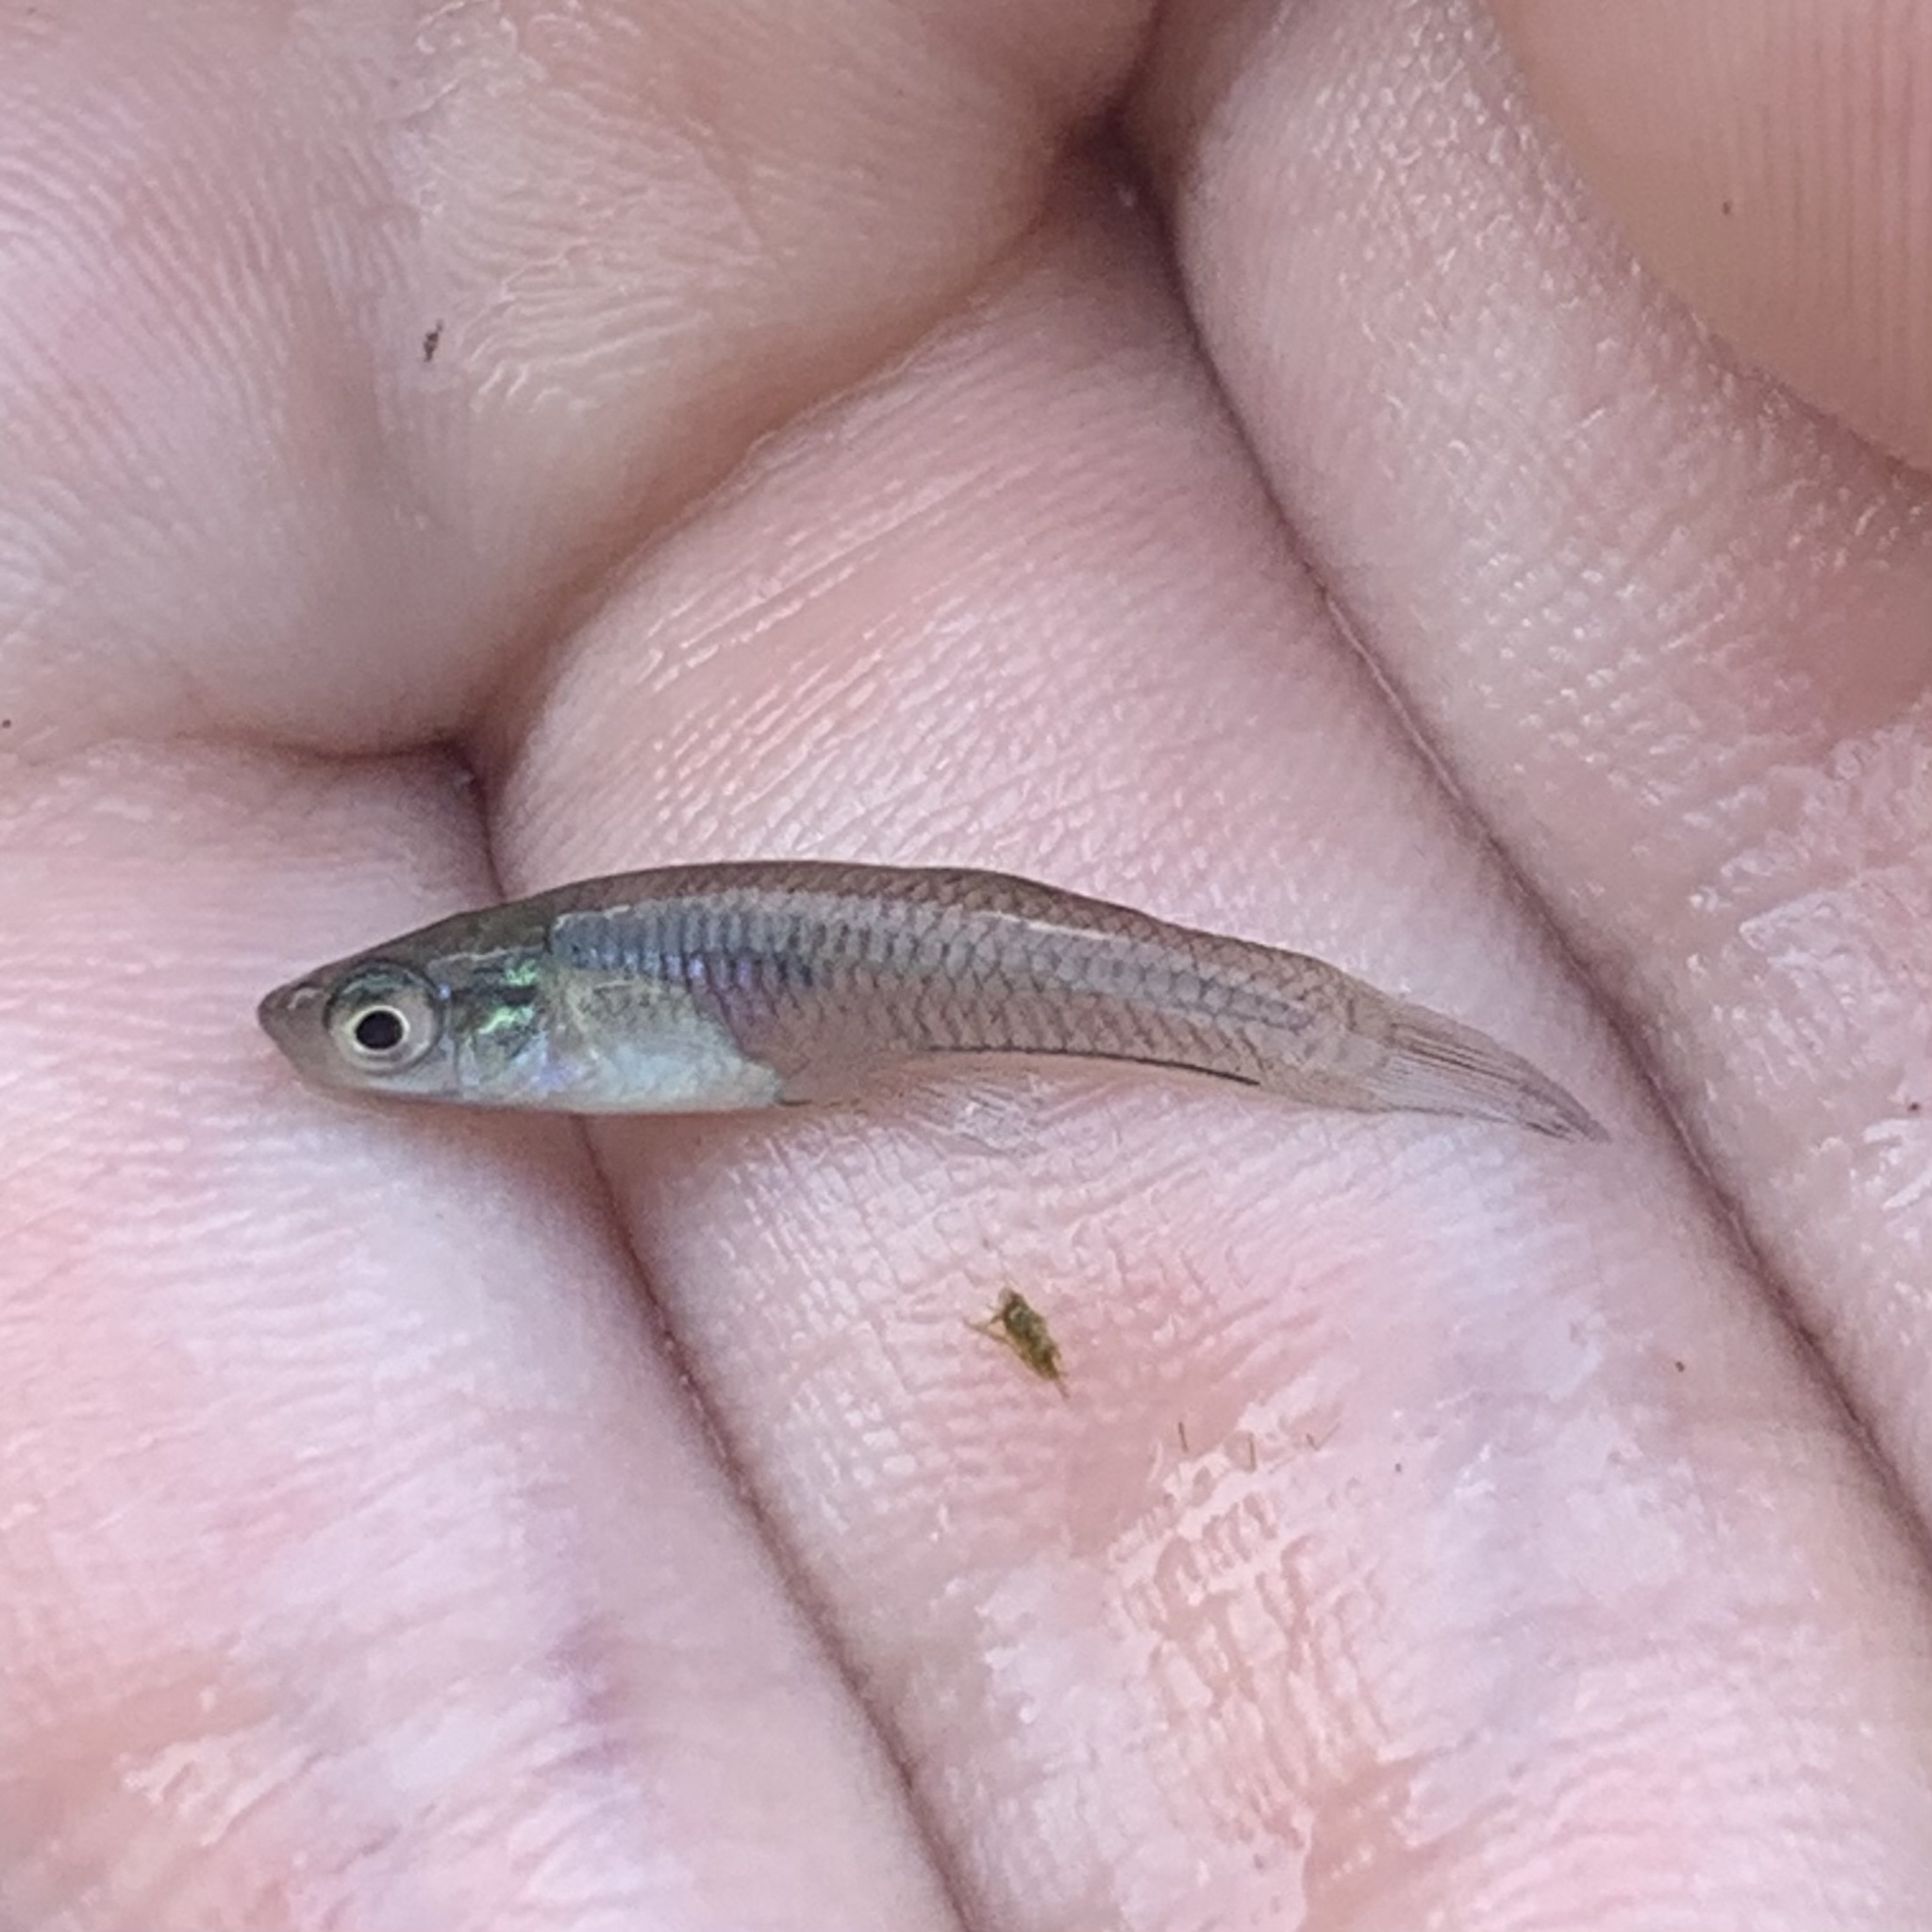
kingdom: Animalia
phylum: Chordata
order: Cyprinodontiformes
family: Poeciliidae
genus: Gambusia
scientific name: Gambusia affinis
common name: Mosquitofish
